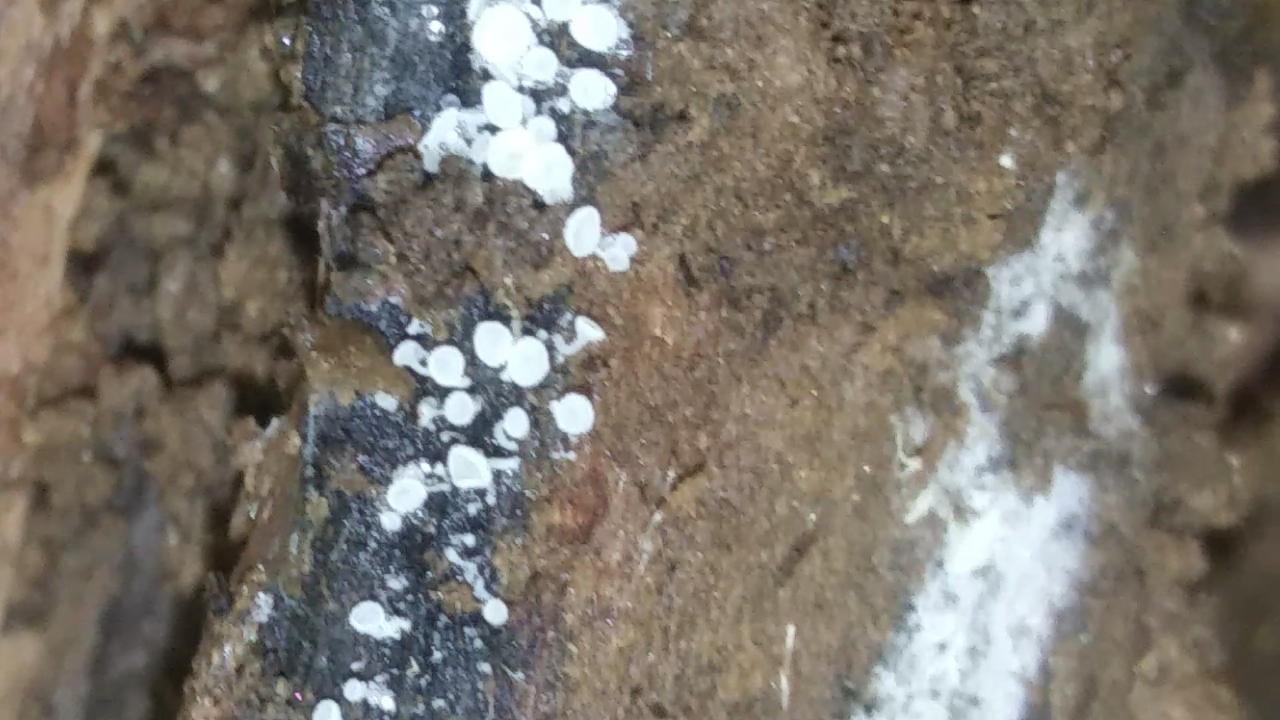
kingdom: Fungi
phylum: Ascomycota
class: Leotiomycetes
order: Helotiales
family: Lachnaceae
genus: Lachnum
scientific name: Lachnum virgineum
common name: Snowy disco
